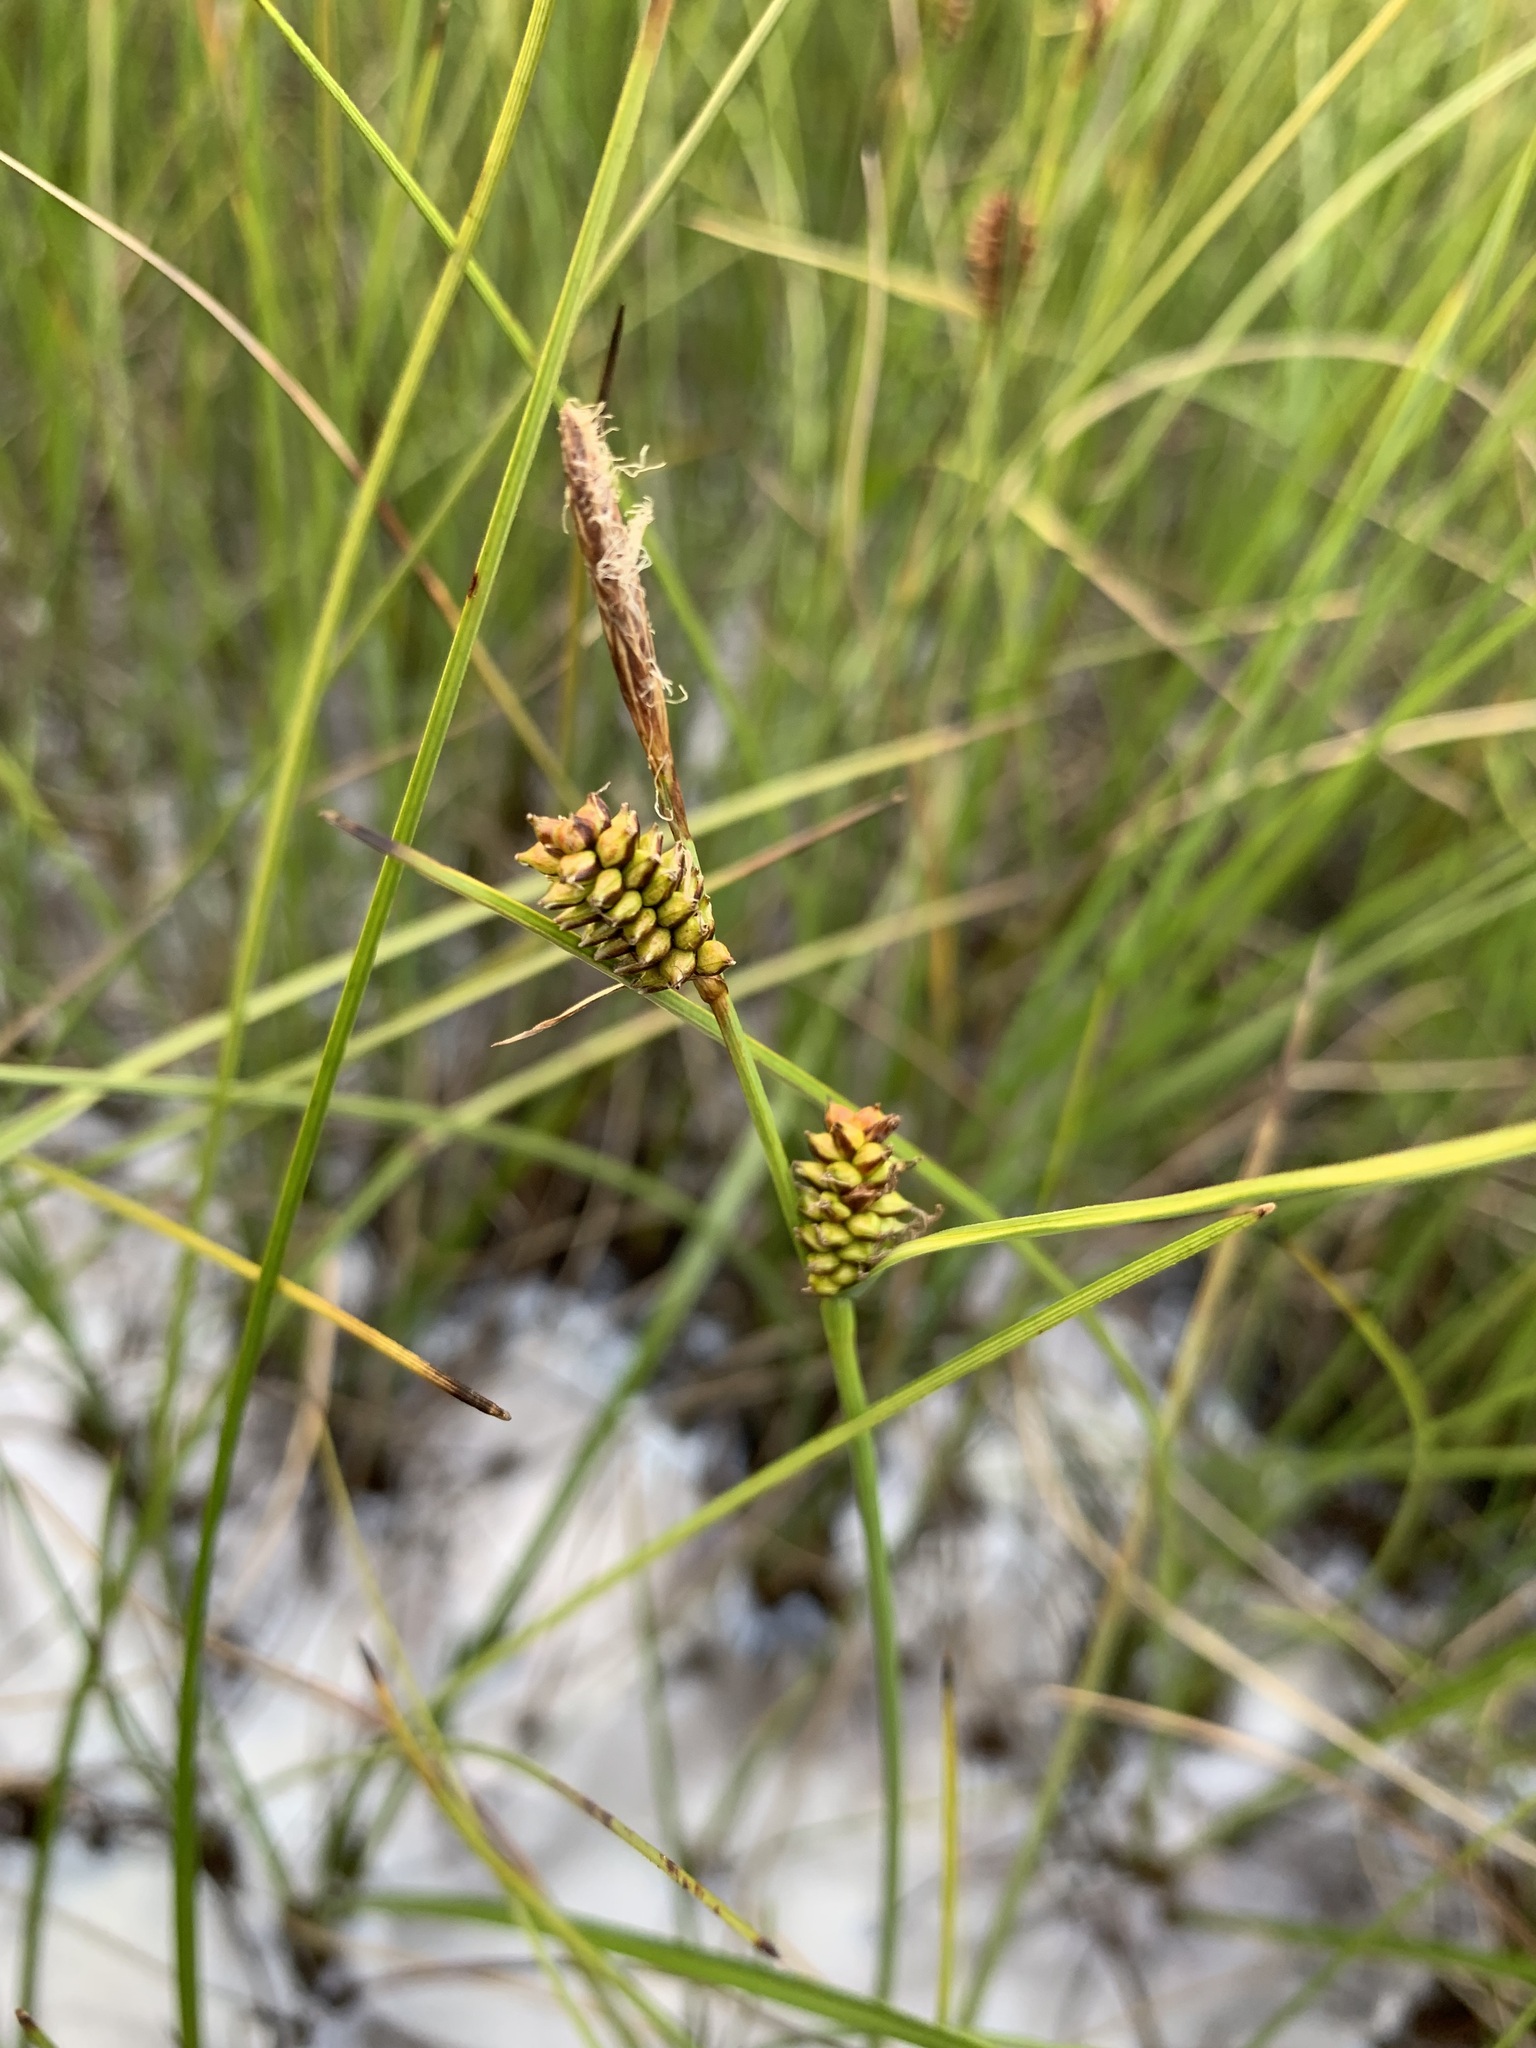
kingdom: Plantae
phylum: Tracheophyta
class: Liliopsida
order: Poales
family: Cyperaceae
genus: Carex
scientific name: Carex rotundata
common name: Round-fruited sedge
